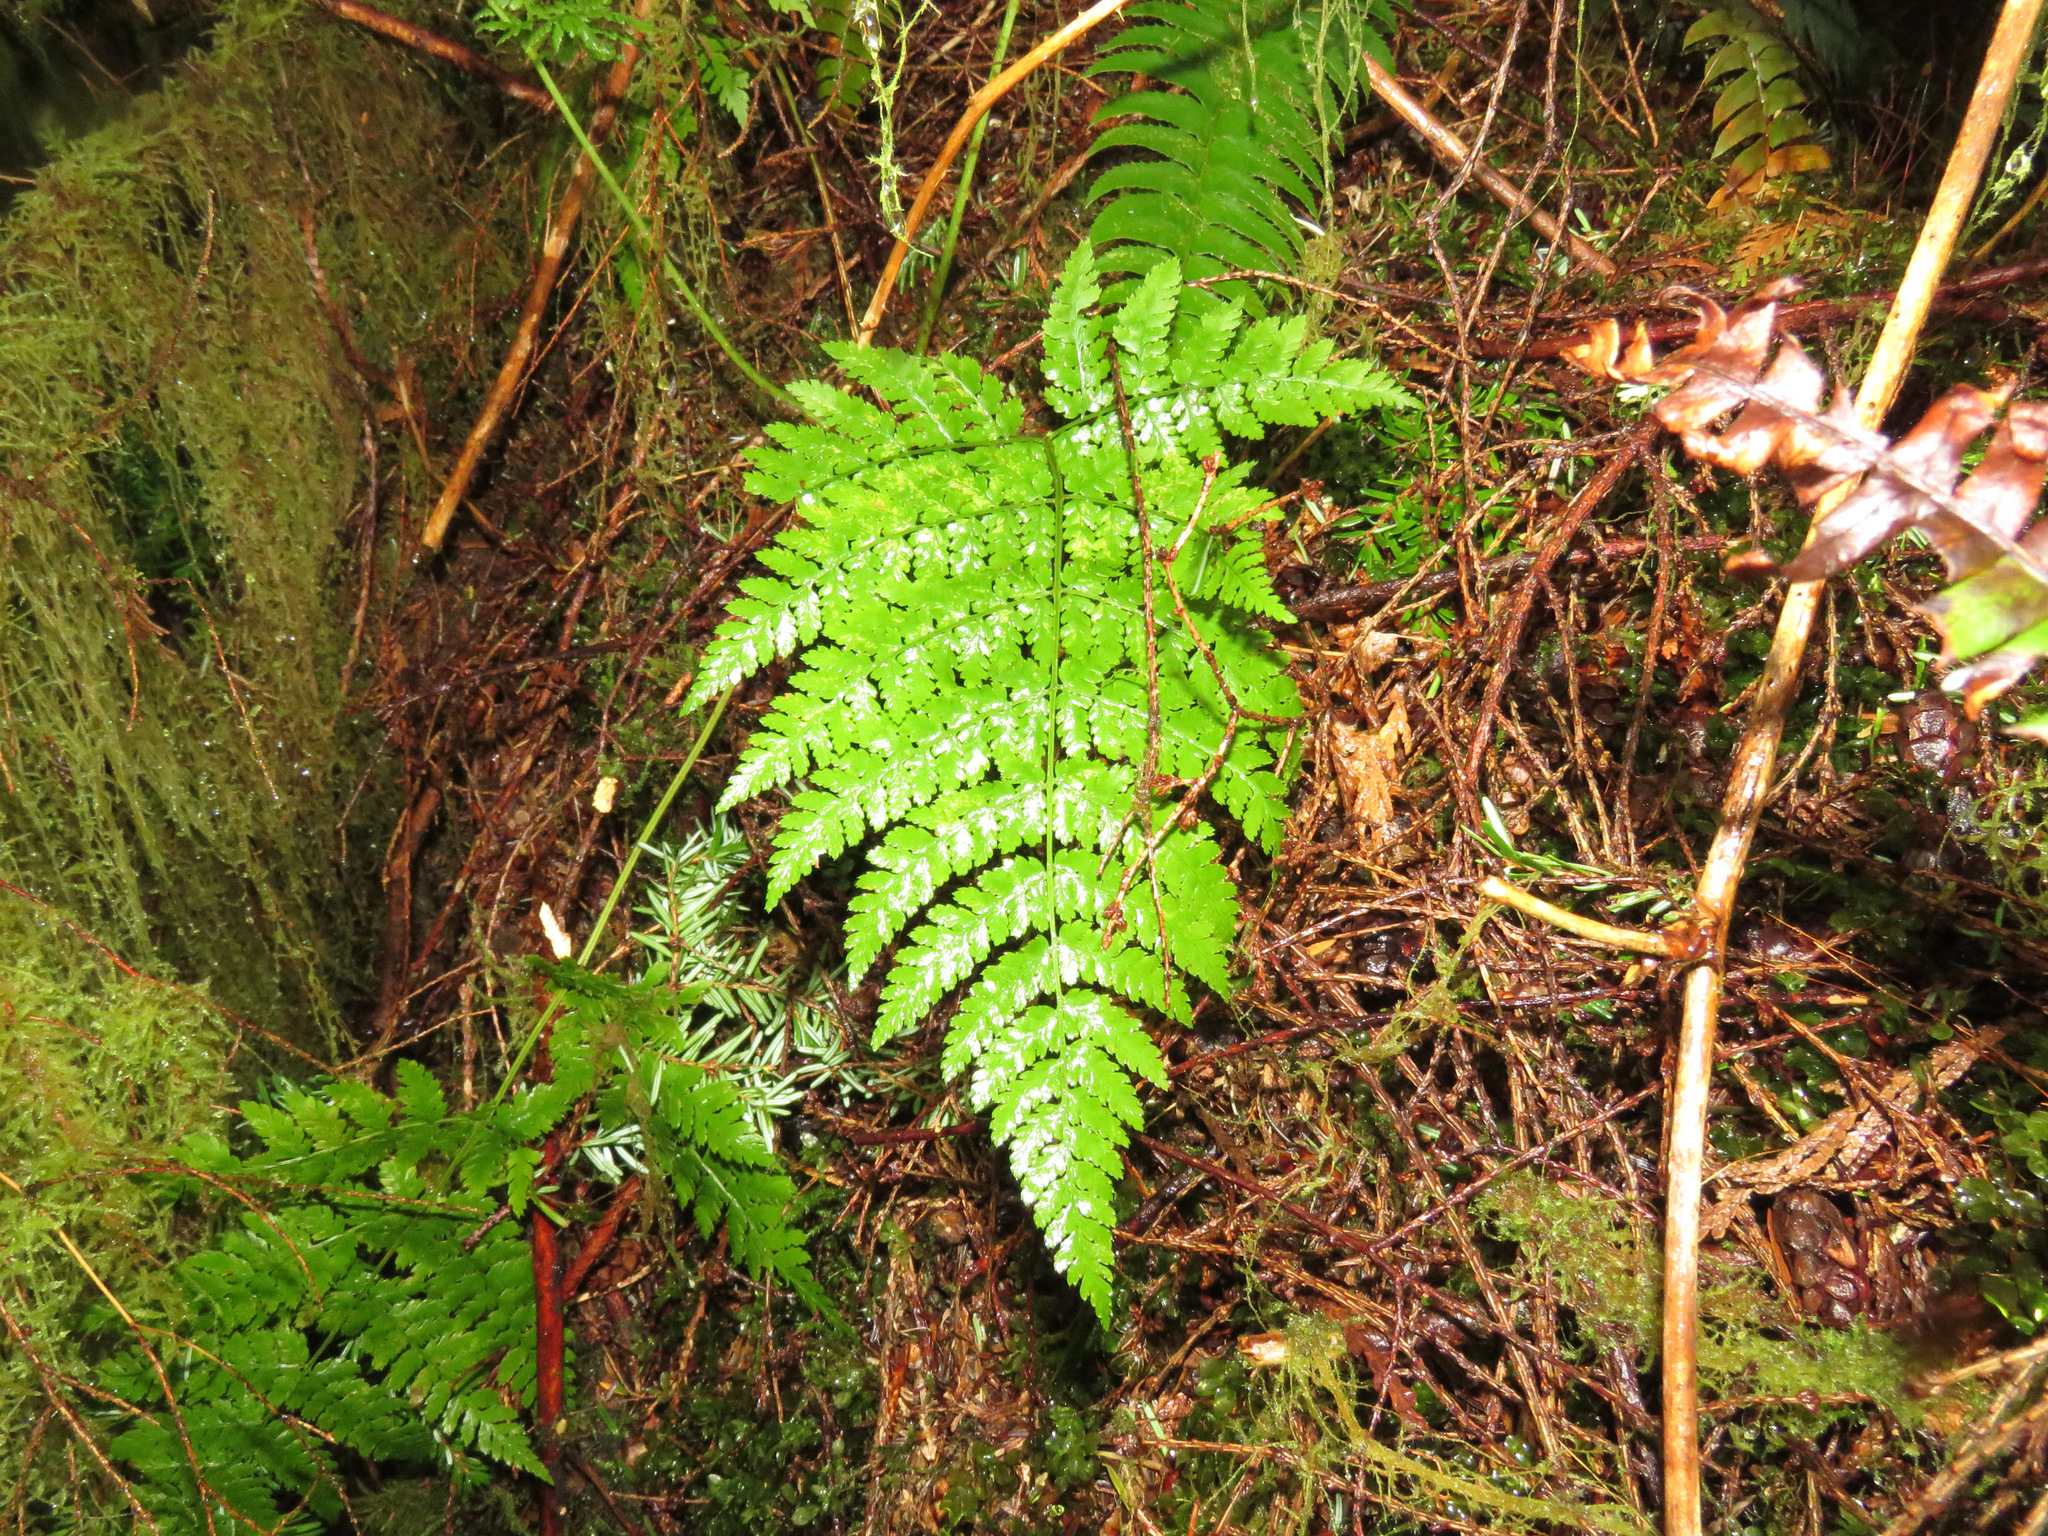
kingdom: Plantae
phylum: Tracheophyta
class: Polypodiopsida
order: Polypodiales
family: Dryopteridaceae
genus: Dryopteris
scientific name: Dryopteris expansa
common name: Northern buckler fern
